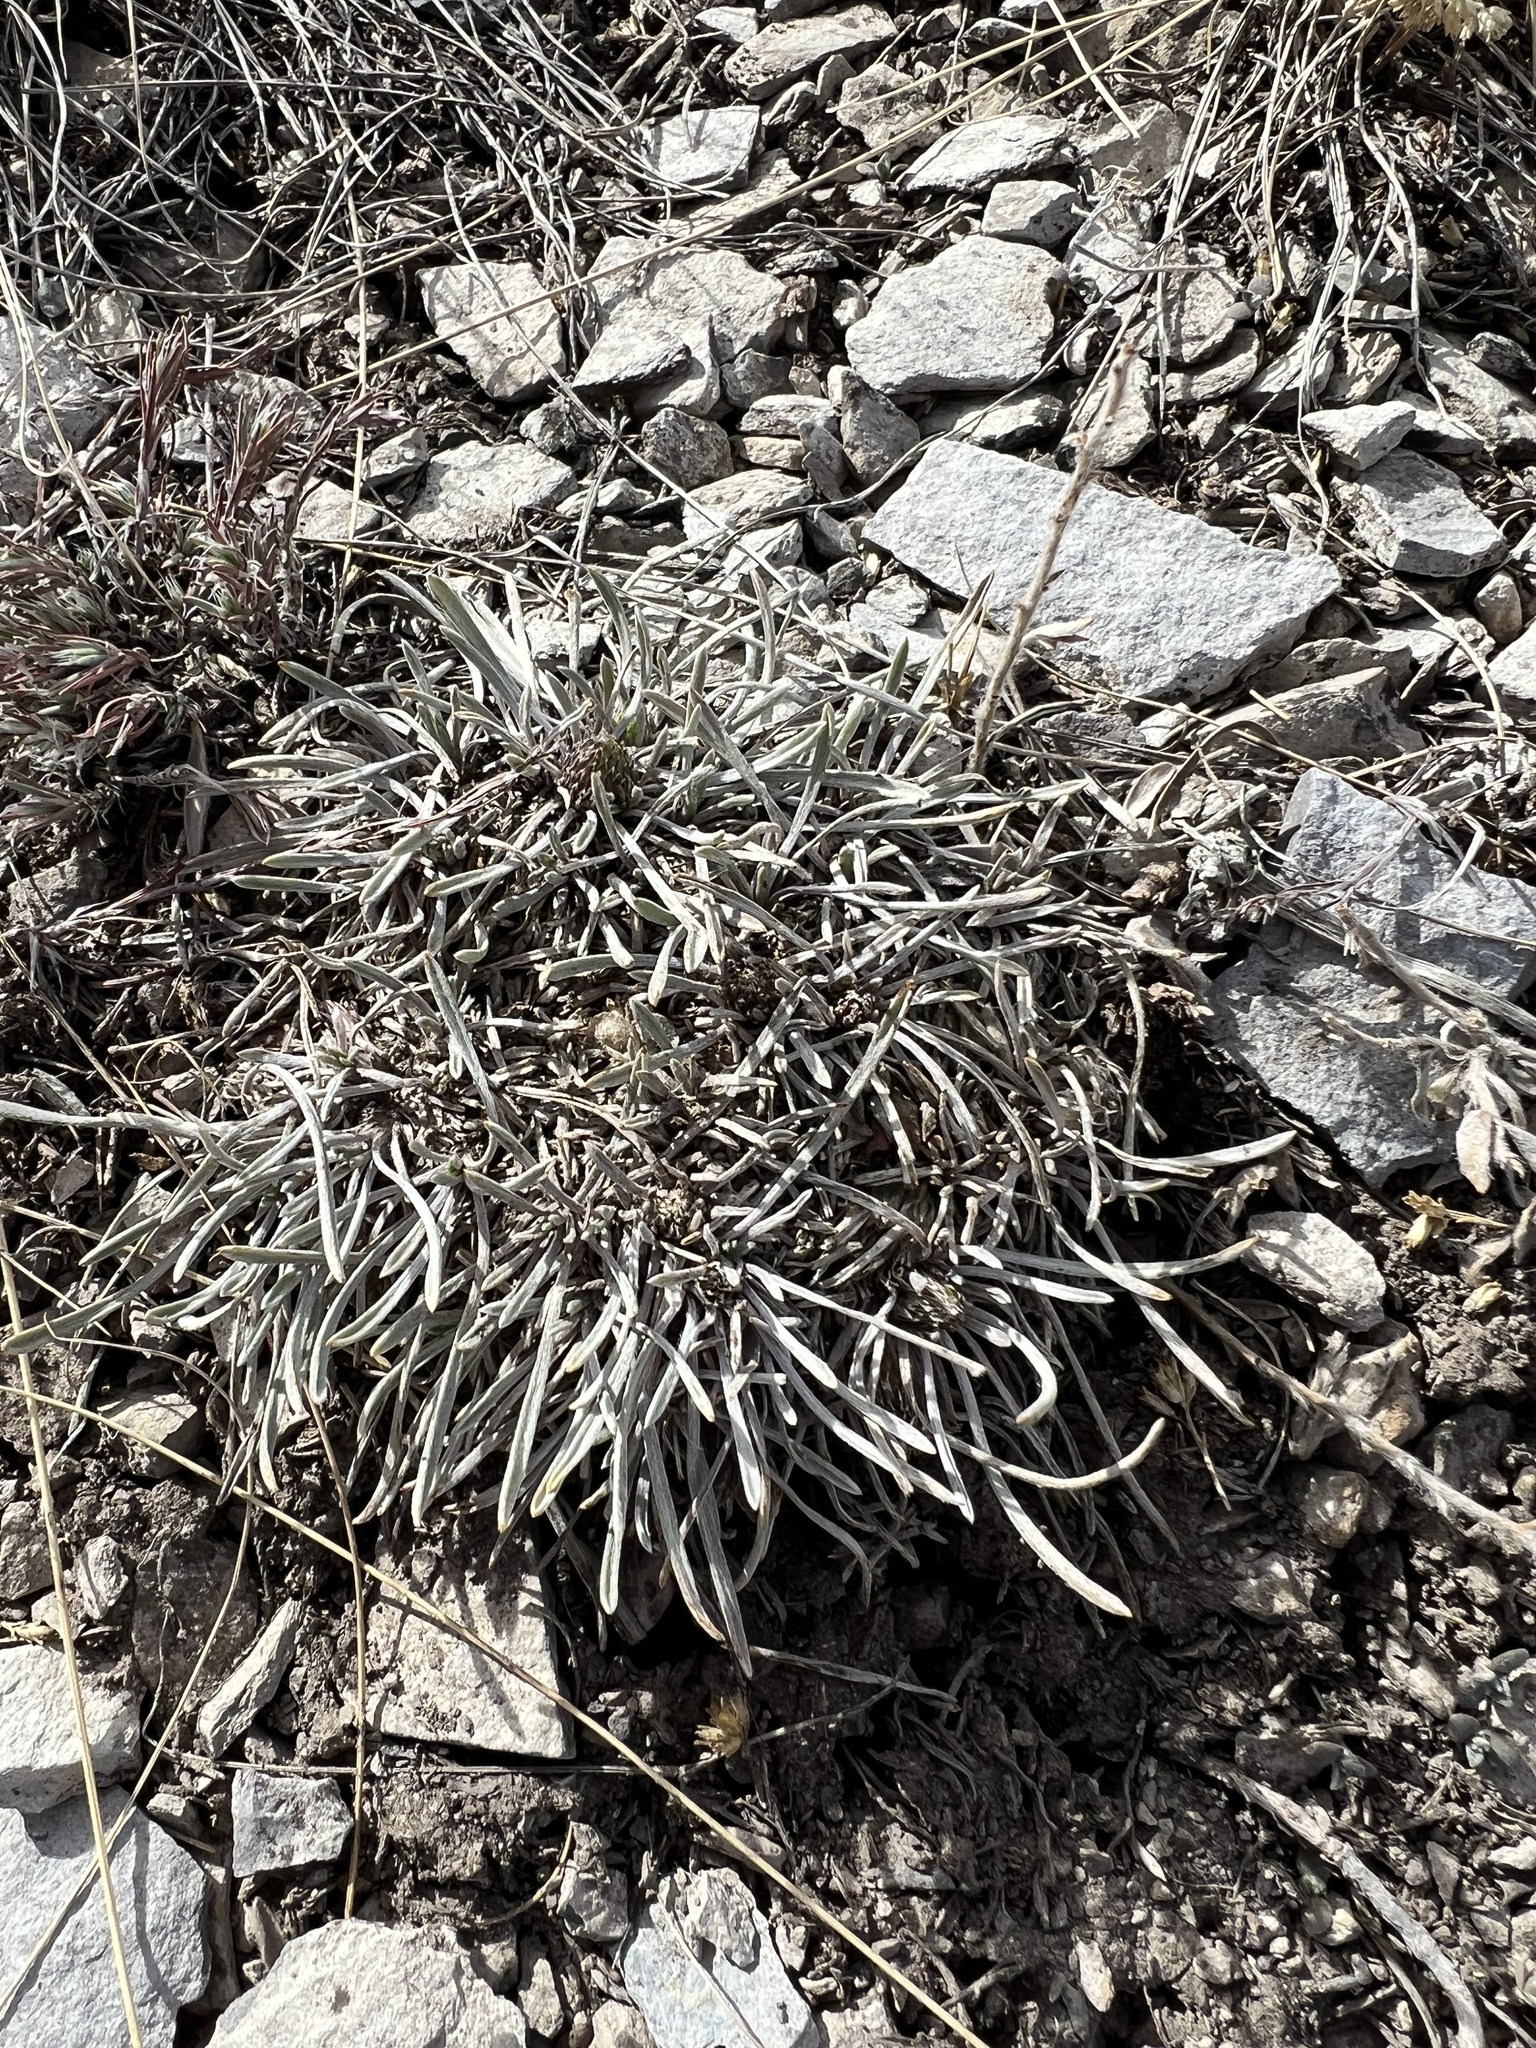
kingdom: Plantae
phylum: Tracheophyta
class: Magnoliopsida
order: Asterales
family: Asteraceae
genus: Townsendia
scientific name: Townsendia hookeri
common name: Hooker's townsend daisy
